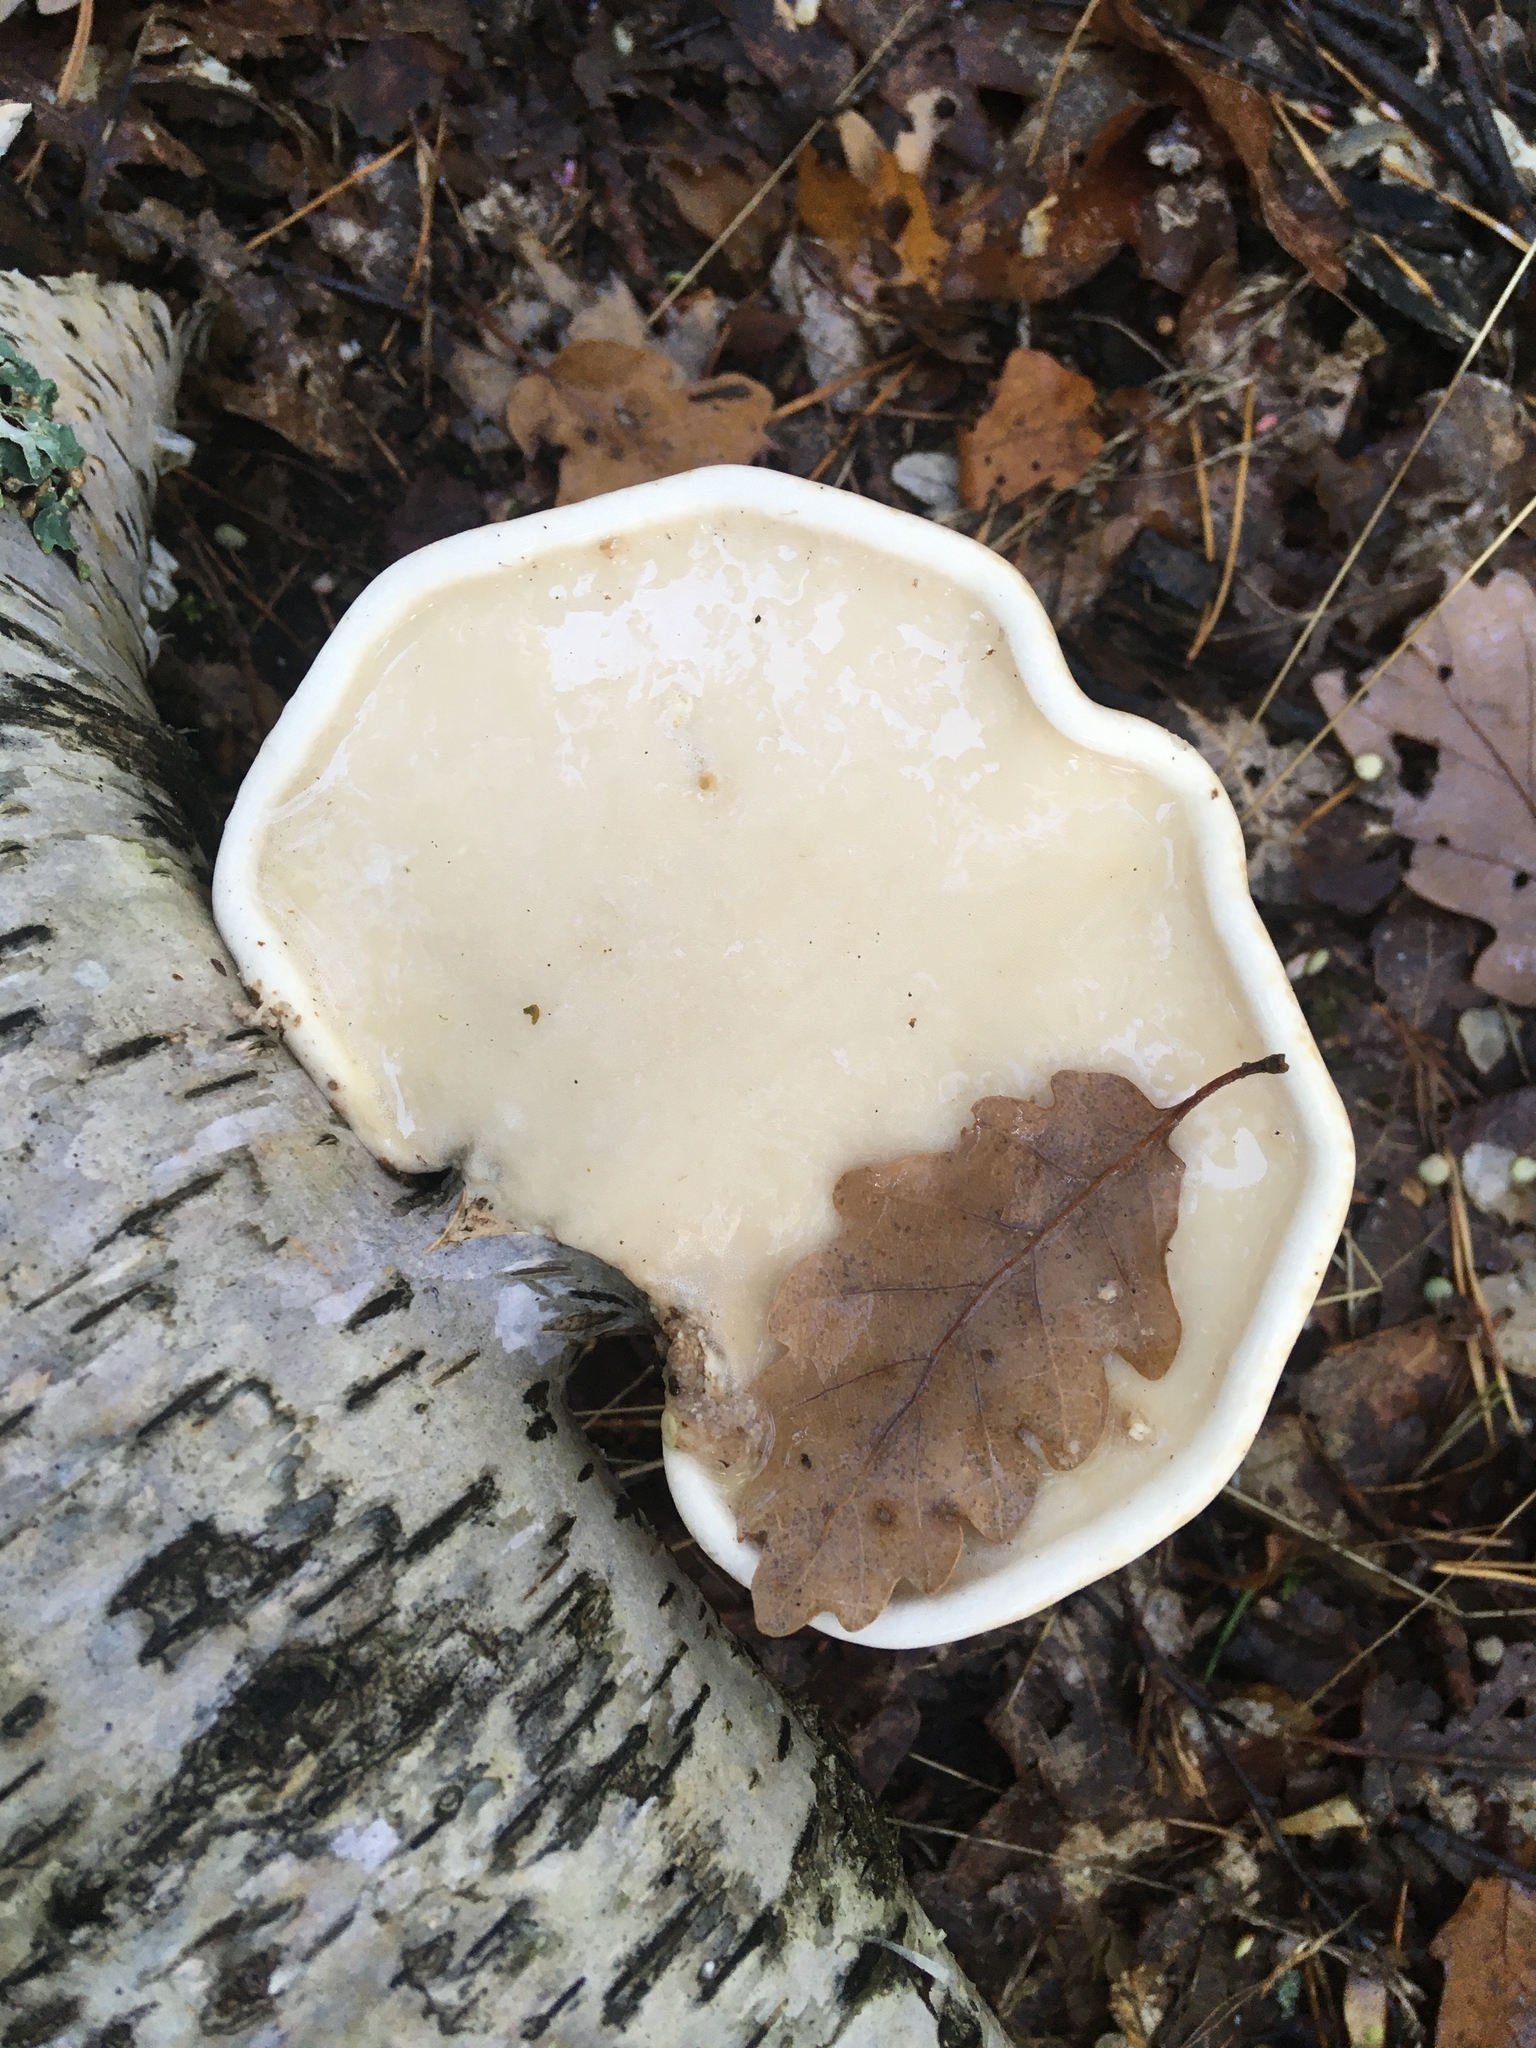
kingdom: Fungi
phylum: Basidiomycota
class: Agaricomycetes
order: Polyporales
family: Fomitopsidaceae
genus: Fomitopsis
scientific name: Fomitopsis betulina
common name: Birch polypore
